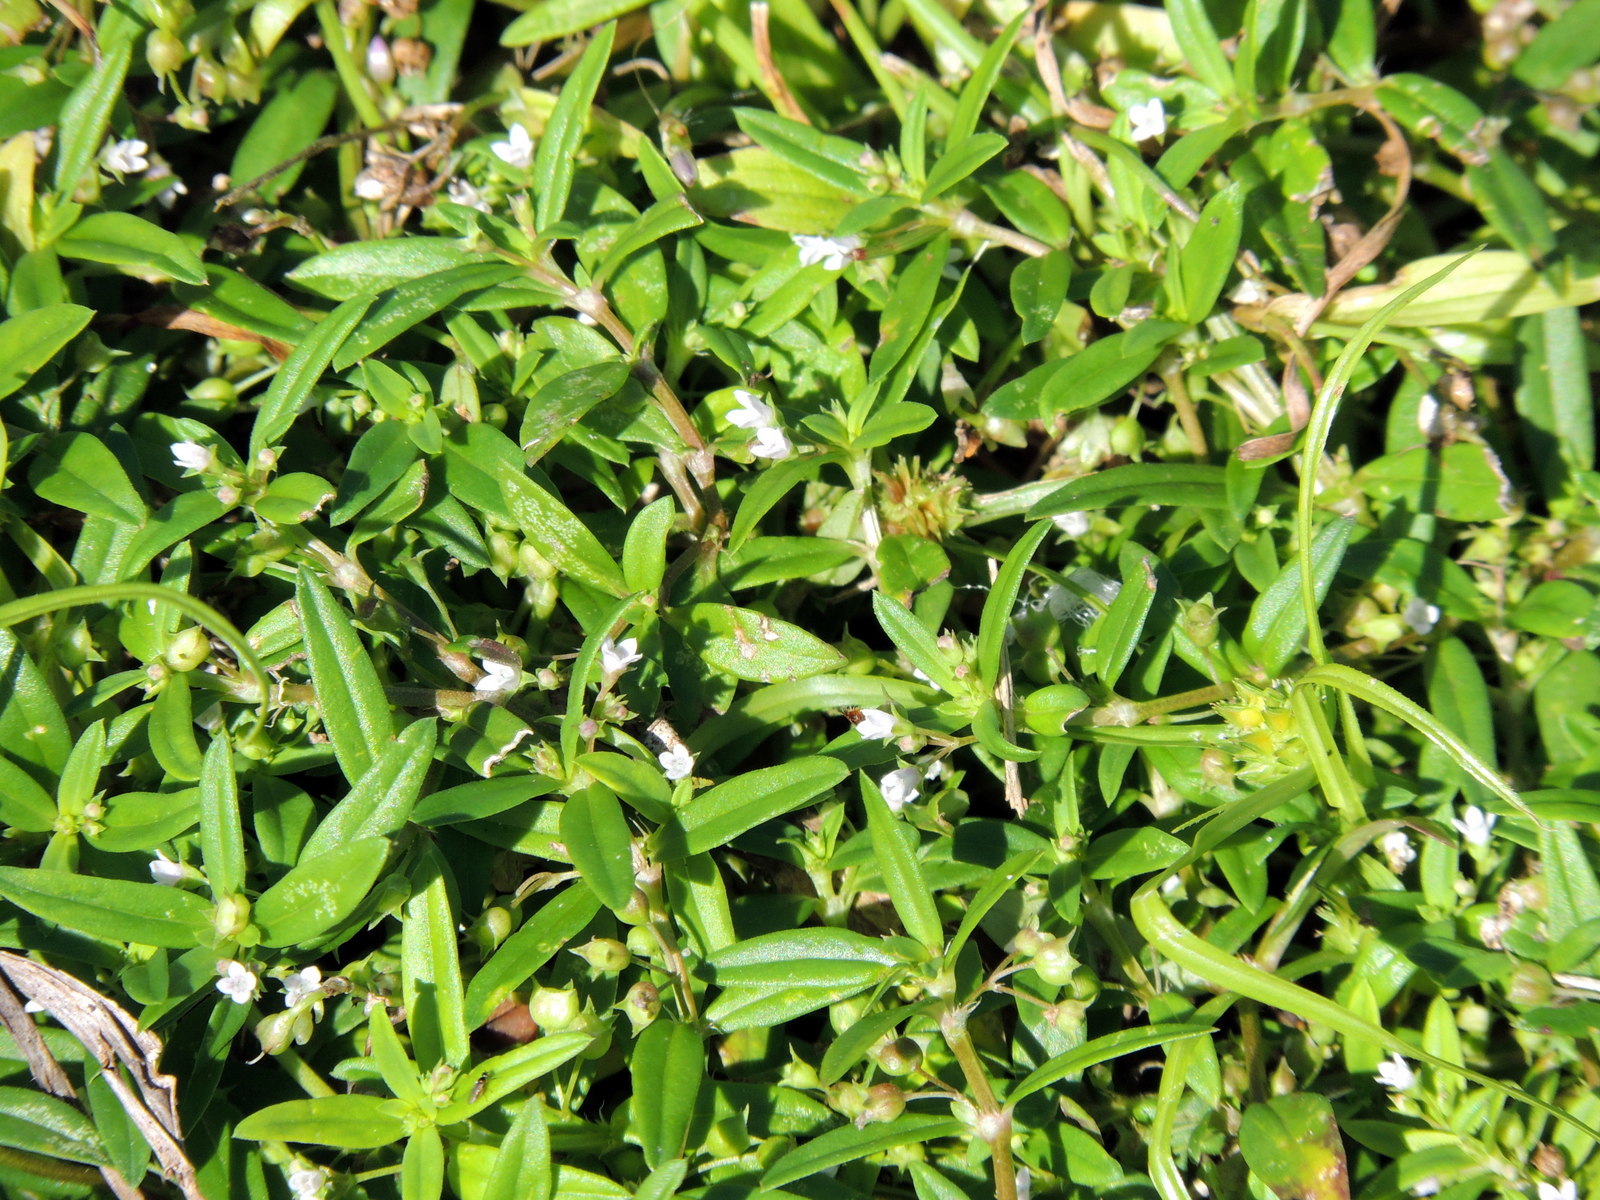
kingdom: Plantae
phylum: Tracheophyta
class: Magnoliopsida
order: Gentianales
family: Rubiaceae
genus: Oldenlandia
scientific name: Oldenlandia corymbosa
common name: Flat-top mille graines
